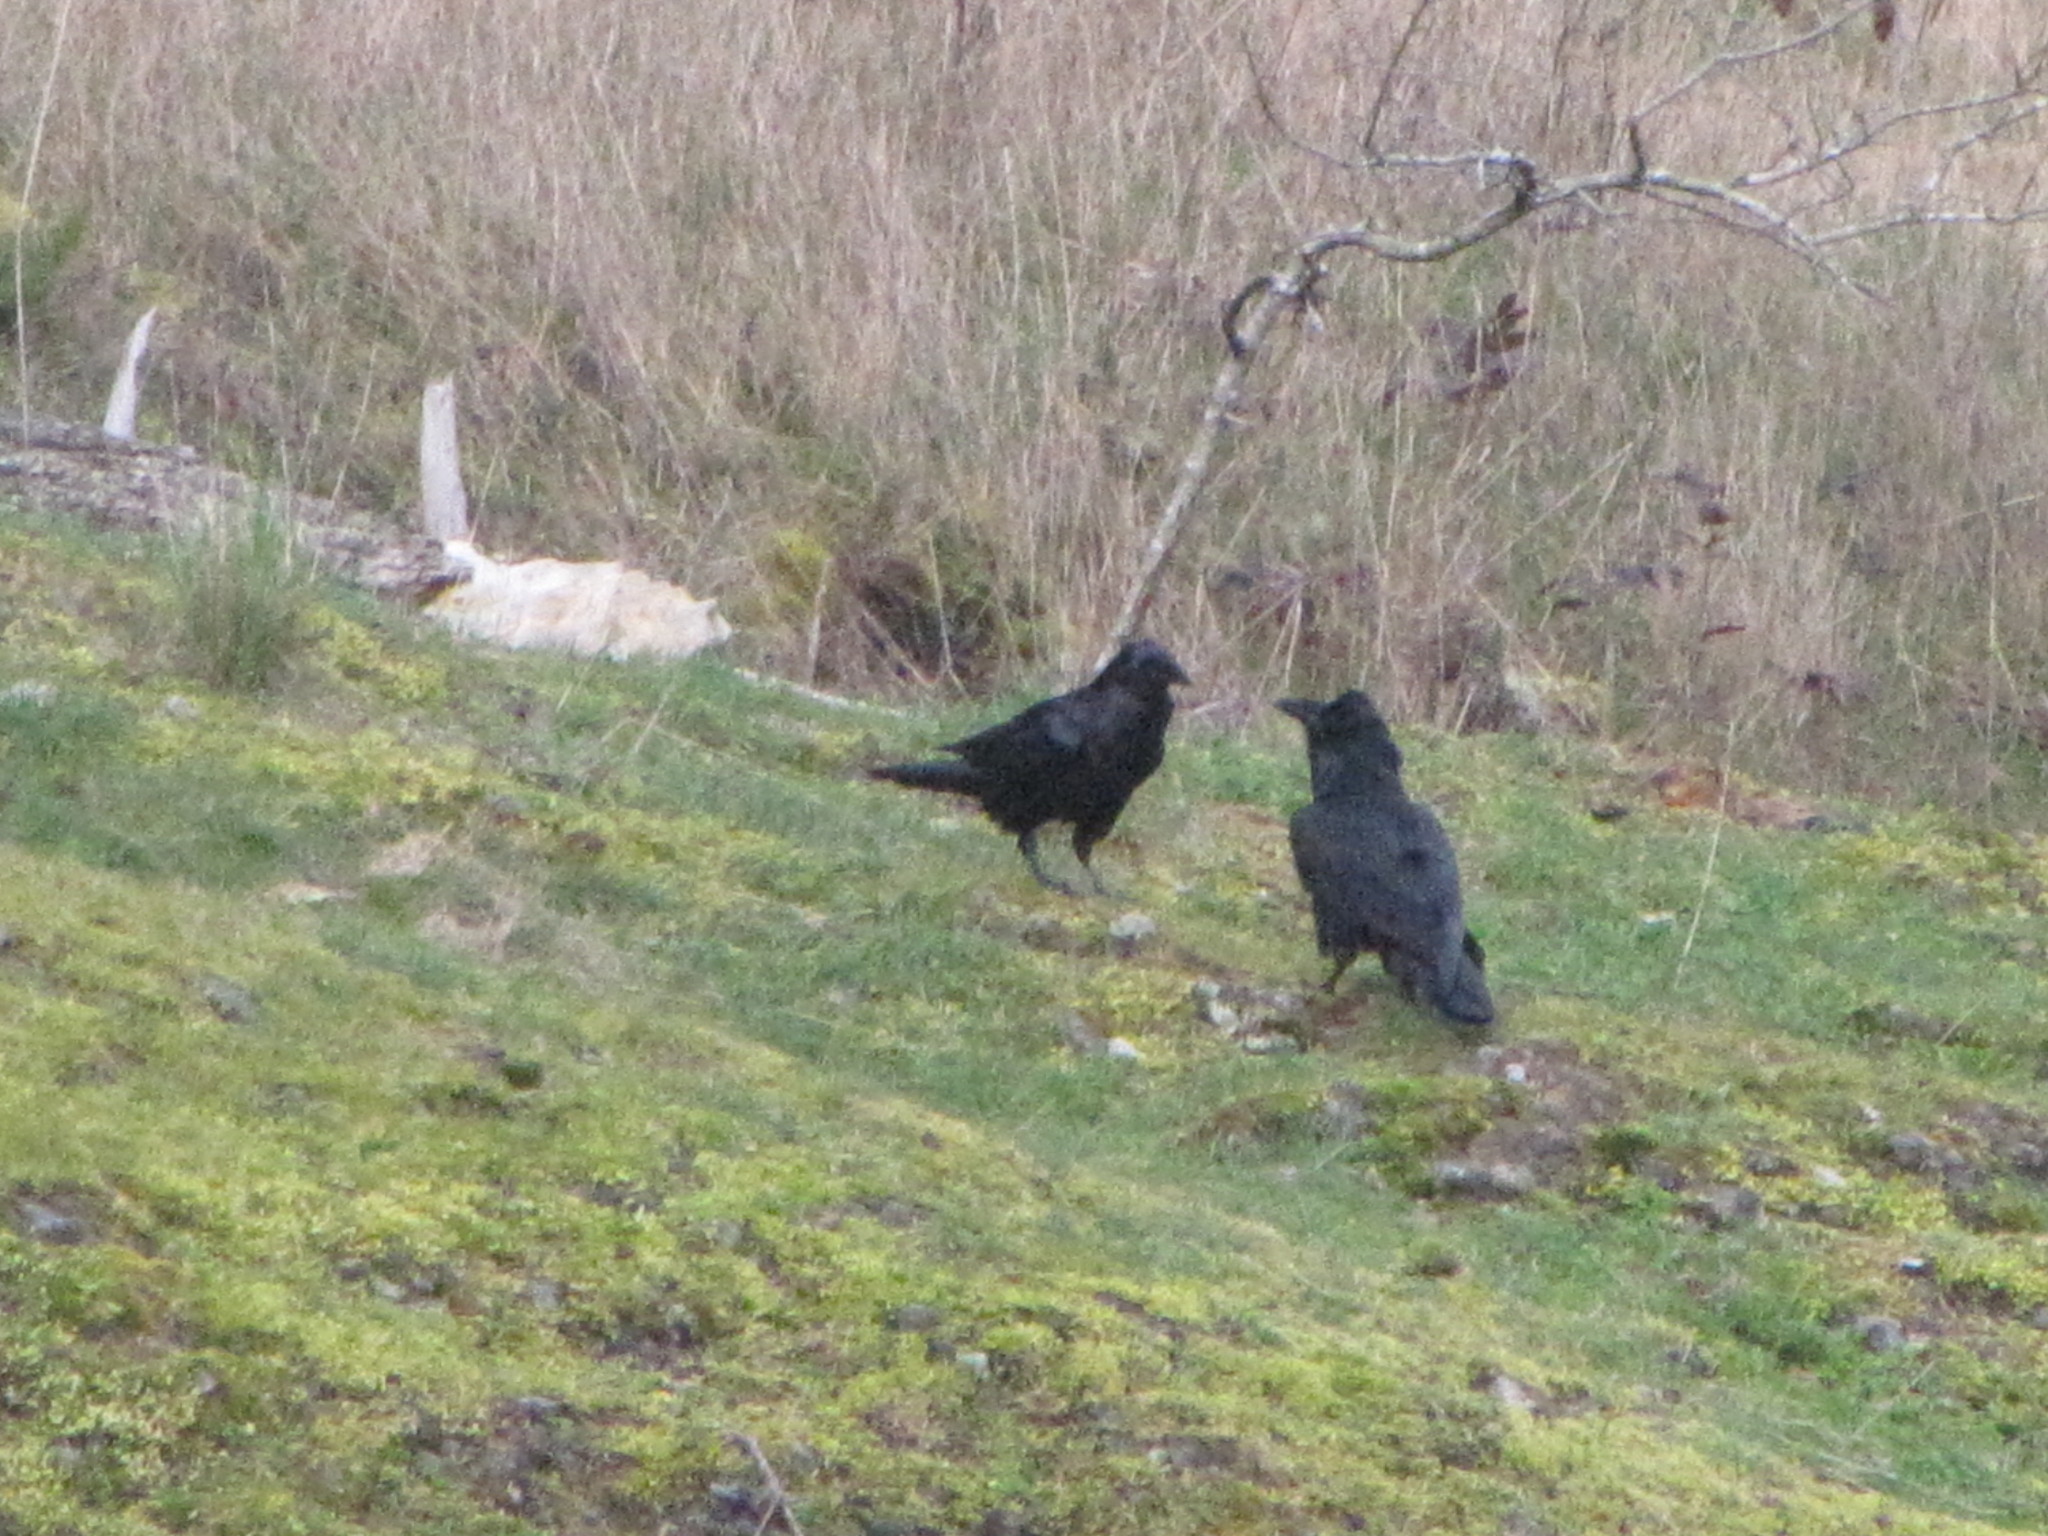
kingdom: Animalia
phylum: Chordata
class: Aves
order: Passeriformes
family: Corvidae
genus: Corvus
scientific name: Corvus corax
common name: Common raven
